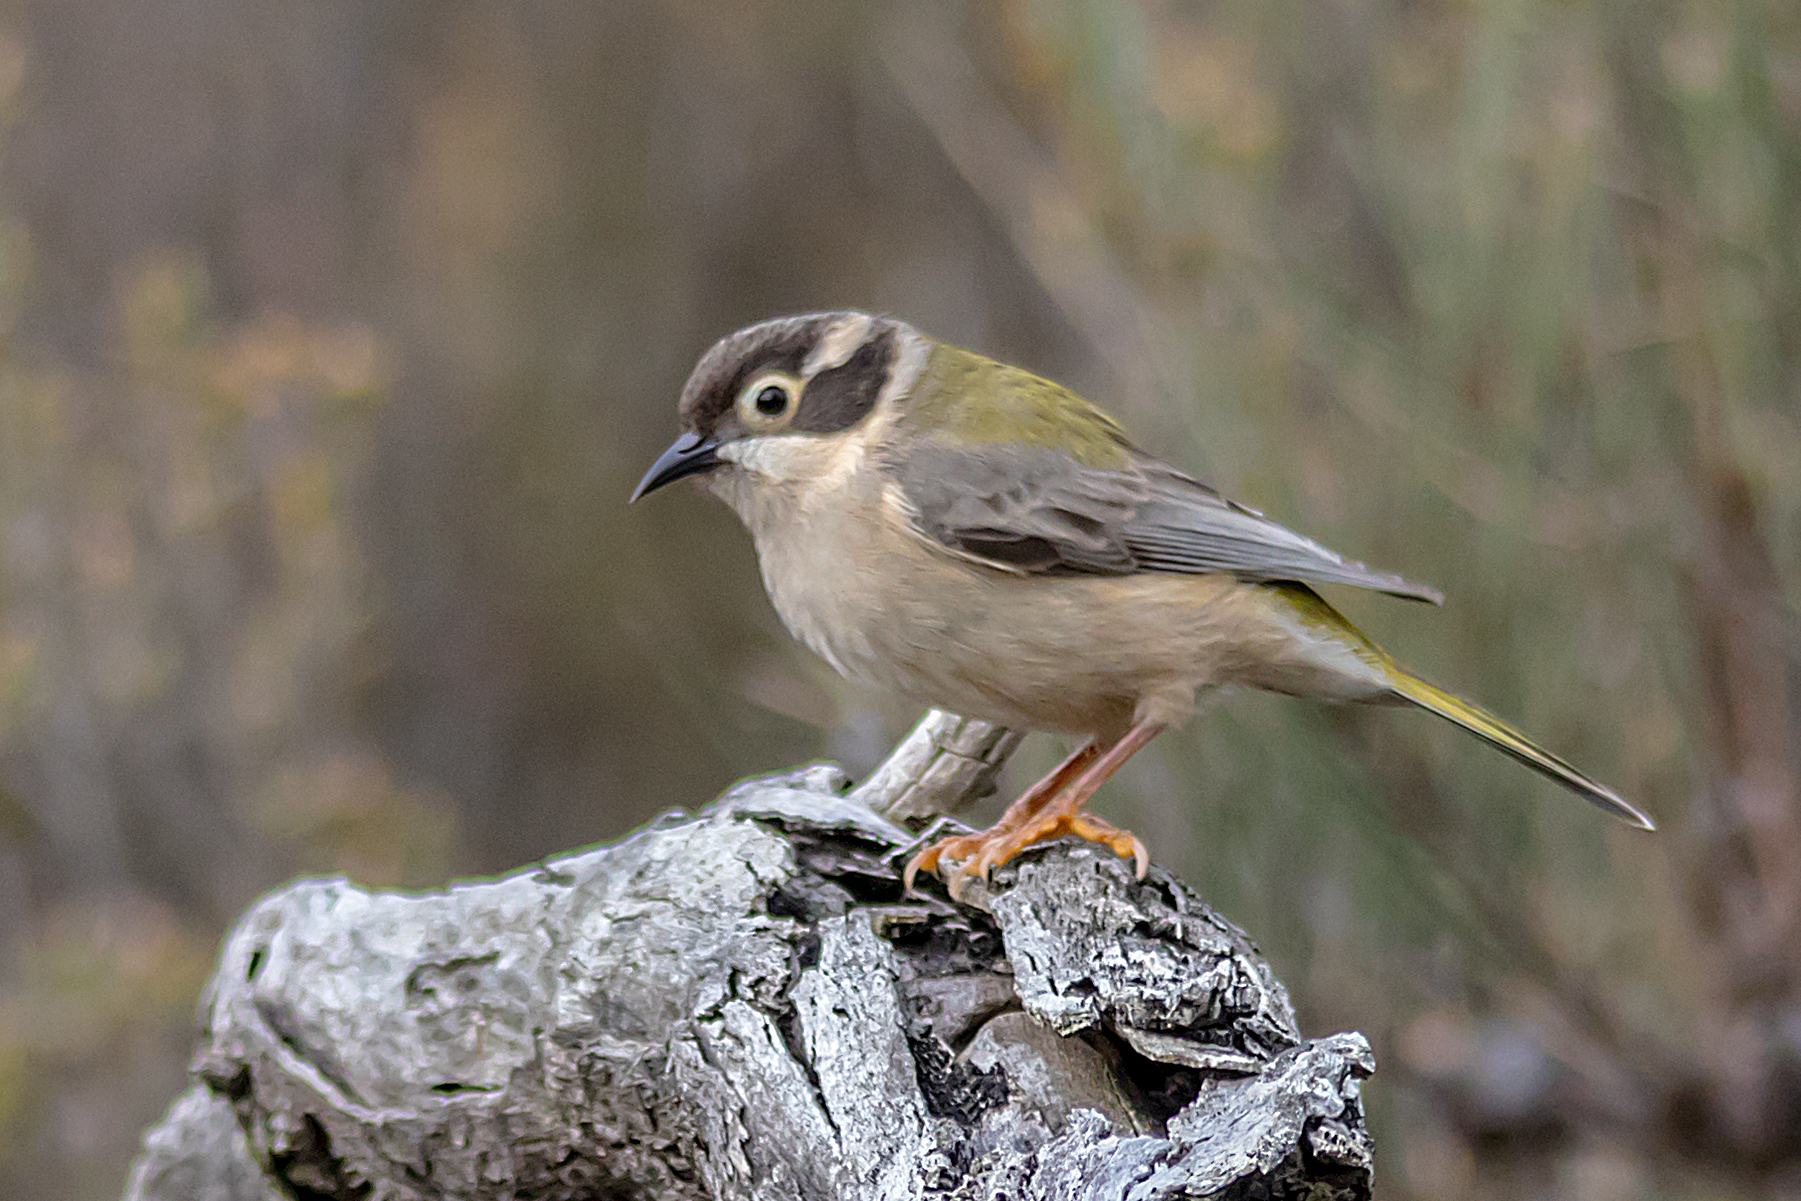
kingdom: Animalia
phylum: Chordata
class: Aves
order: Passeriformes
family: Meliphagidae
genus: Melithreptus
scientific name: Melithreptus brevirostris
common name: Brown-headed honeyeater
